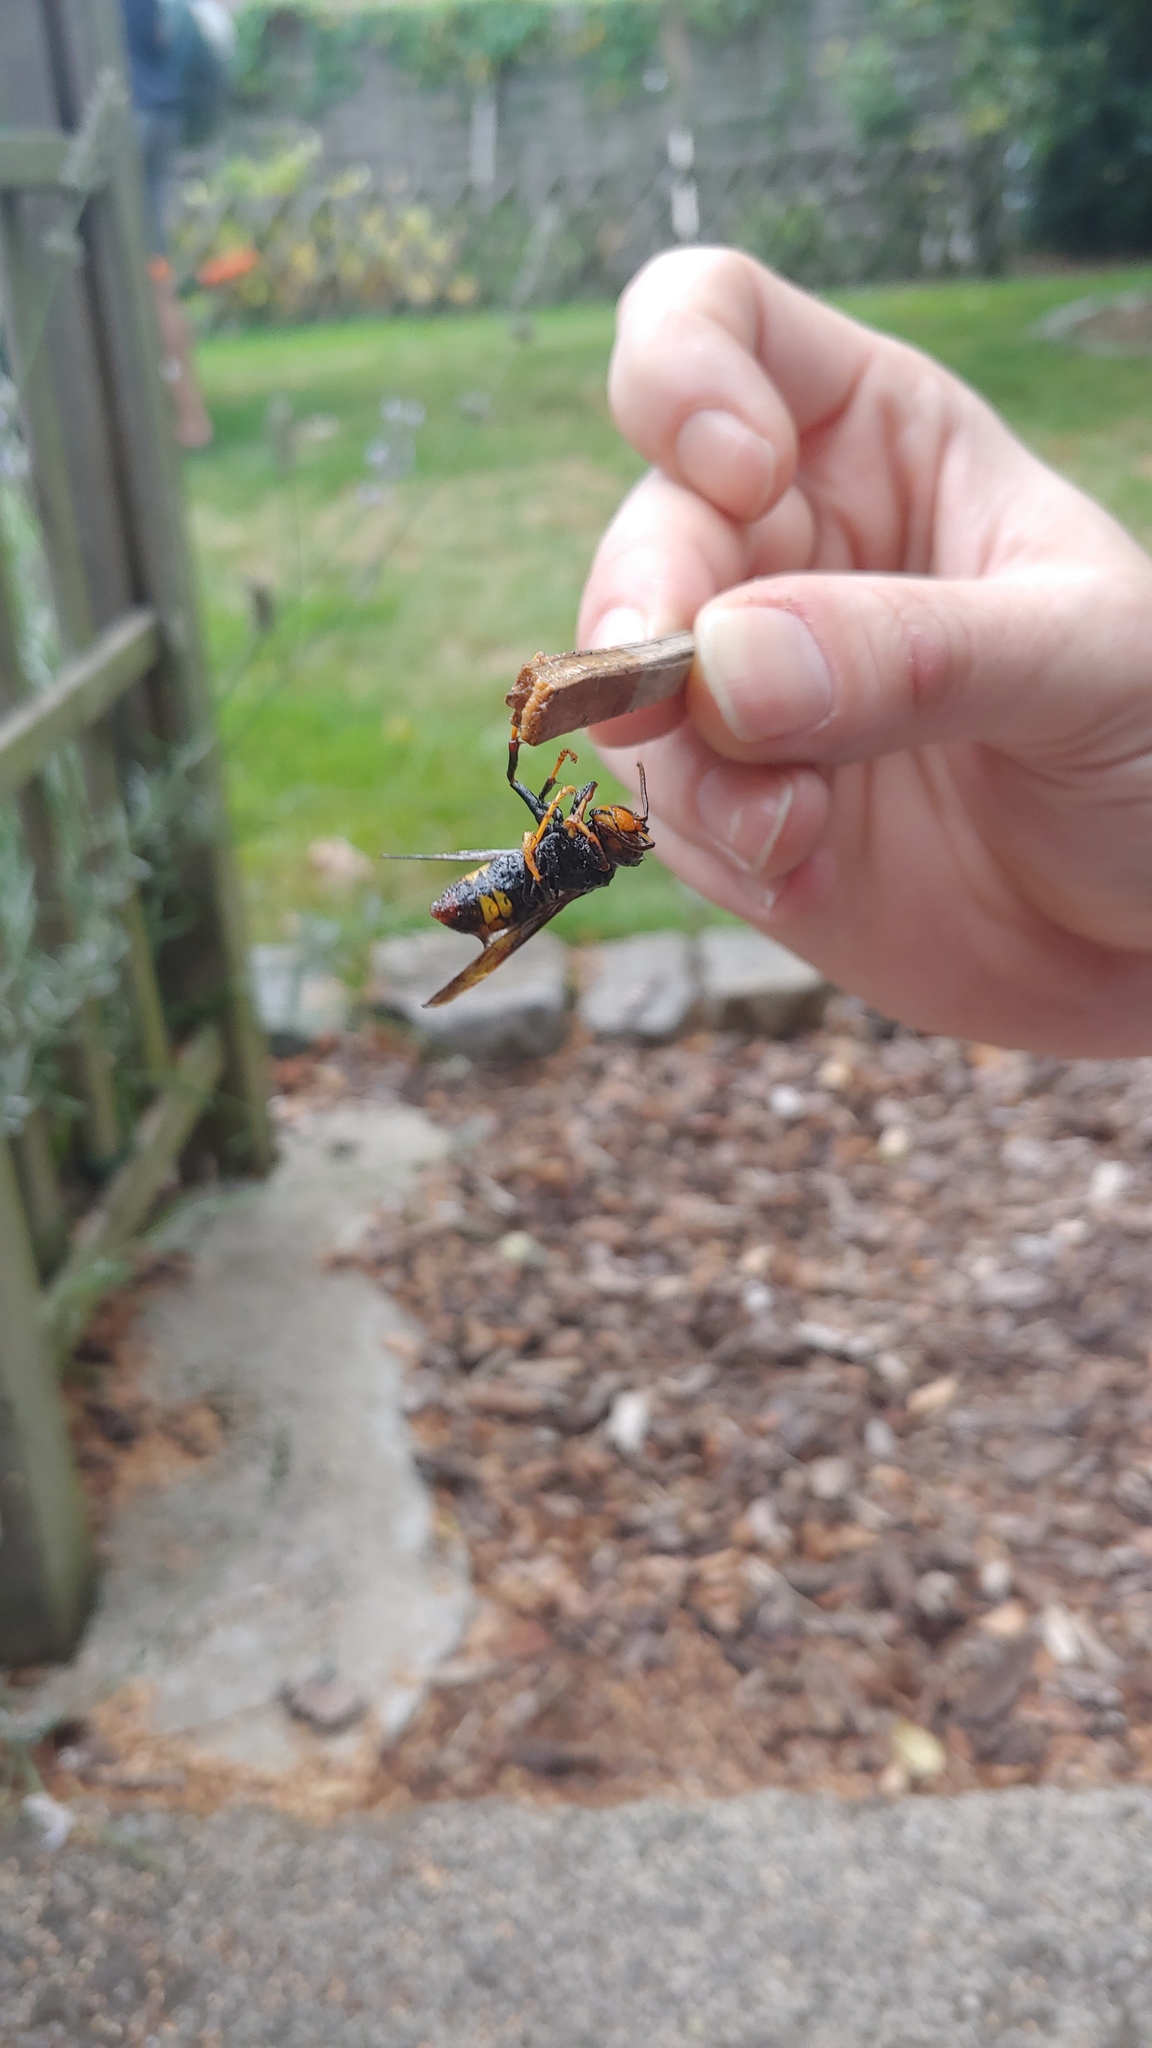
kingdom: Animalia
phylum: Arthropoda
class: Insecta
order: Hymenoptera
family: Vespidae
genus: Vespa
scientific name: Vespa velutina
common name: Asian hornet
